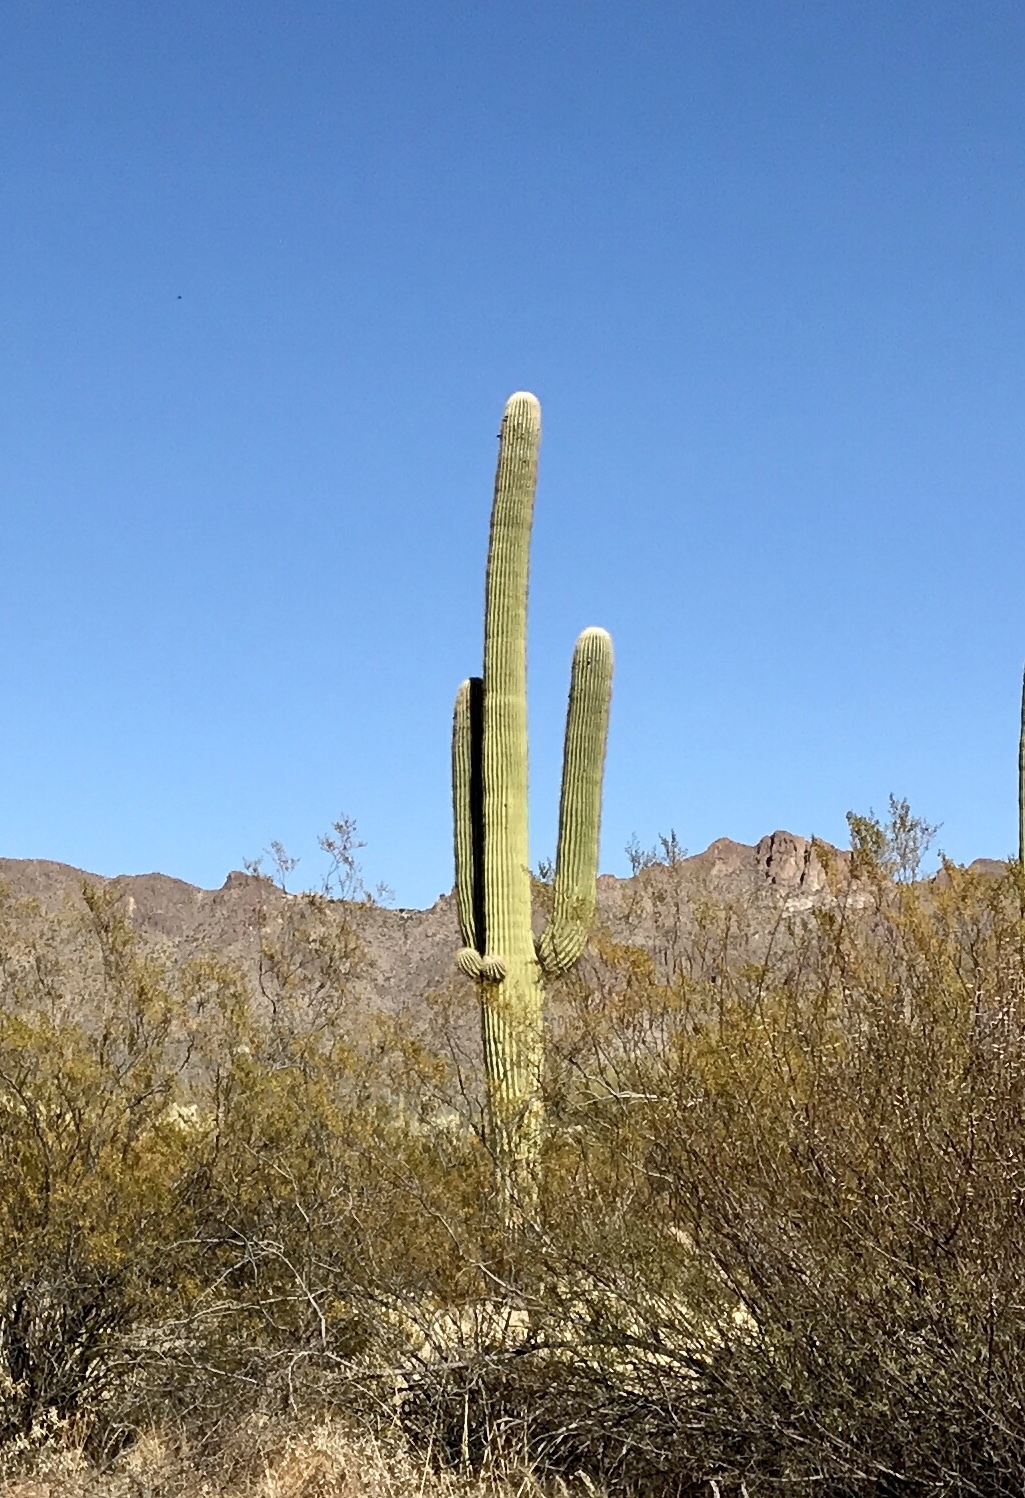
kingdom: Plantae
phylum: Tracheophyta
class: Magnoliopsida
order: Caryophyllales
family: Cactaceae
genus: Carnegiea
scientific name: Carnegiea gigantea
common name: Saguaro
